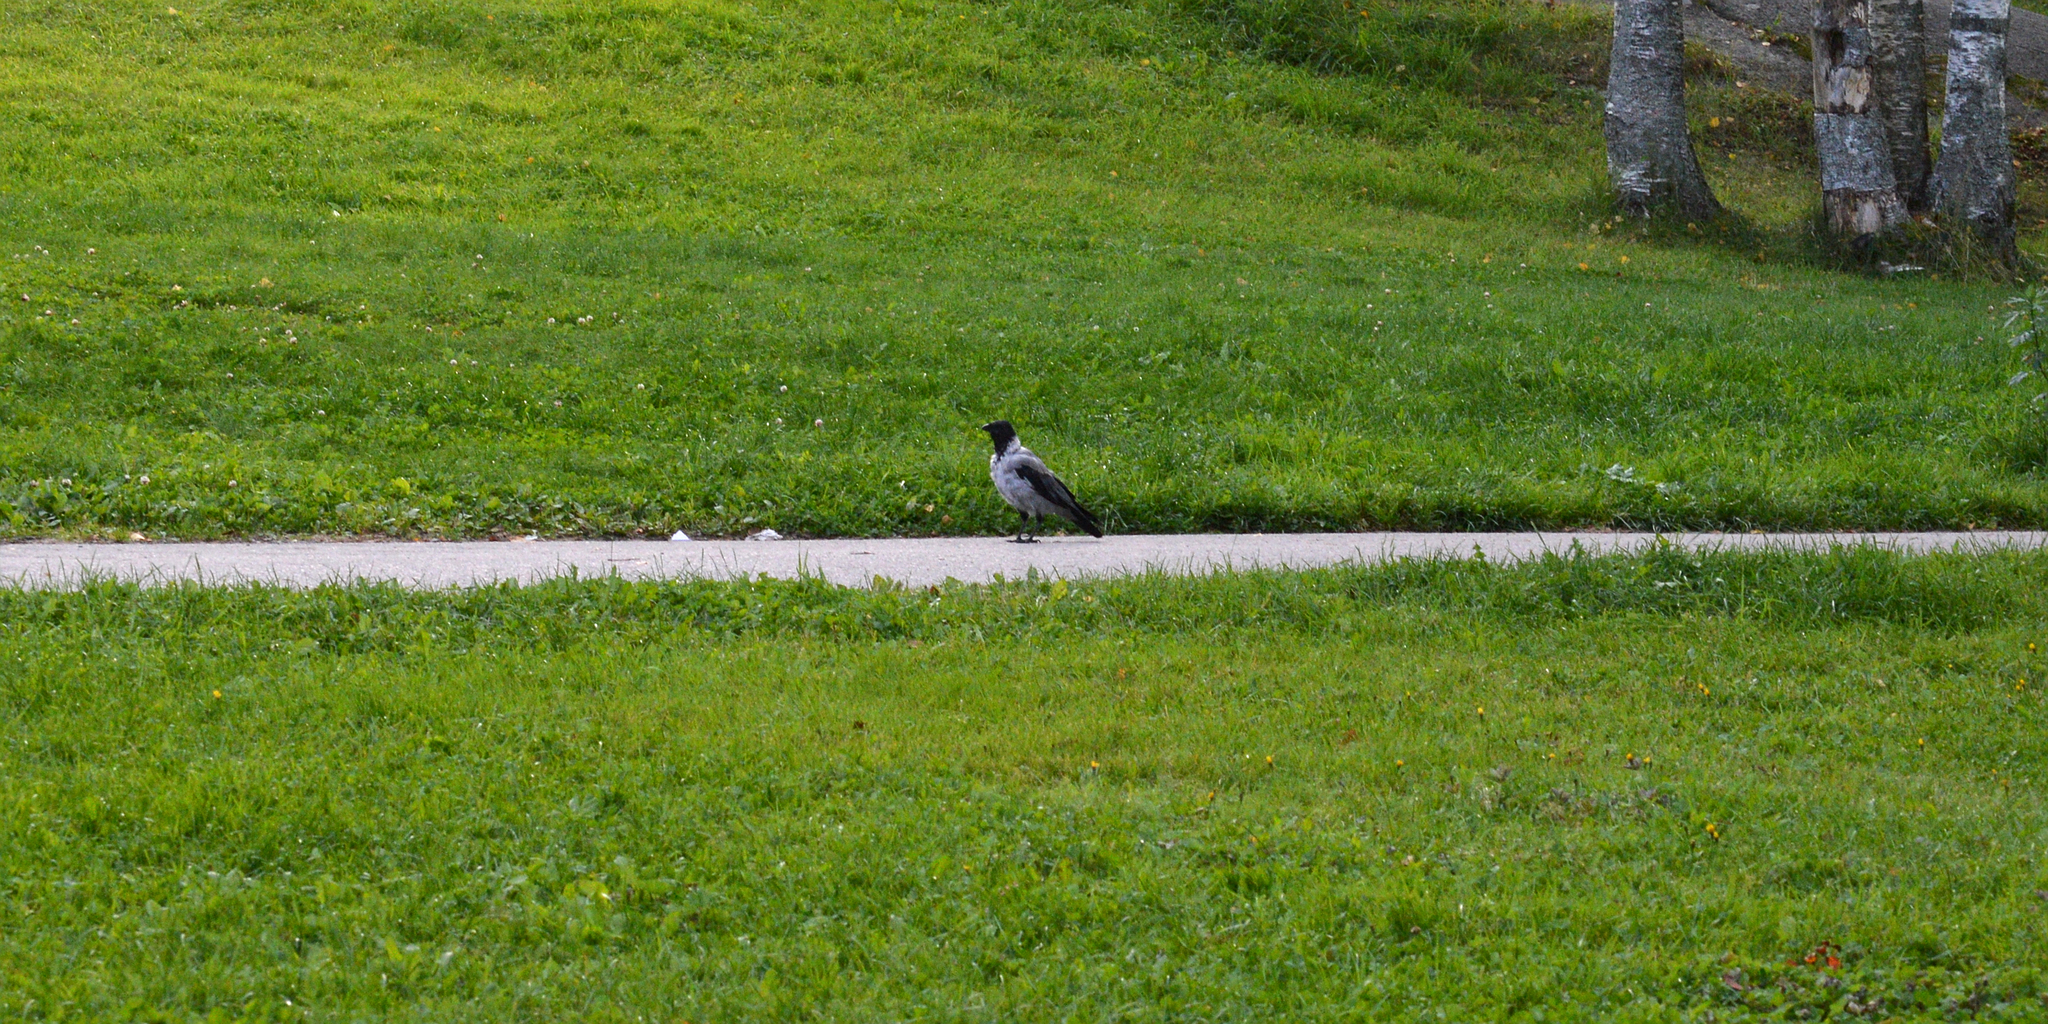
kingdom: Animalia
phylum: Chordata
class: Aves
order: Passeriformes
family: Corvidae
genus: Corvus
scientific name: Corvus cornix
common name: Hooded crow
